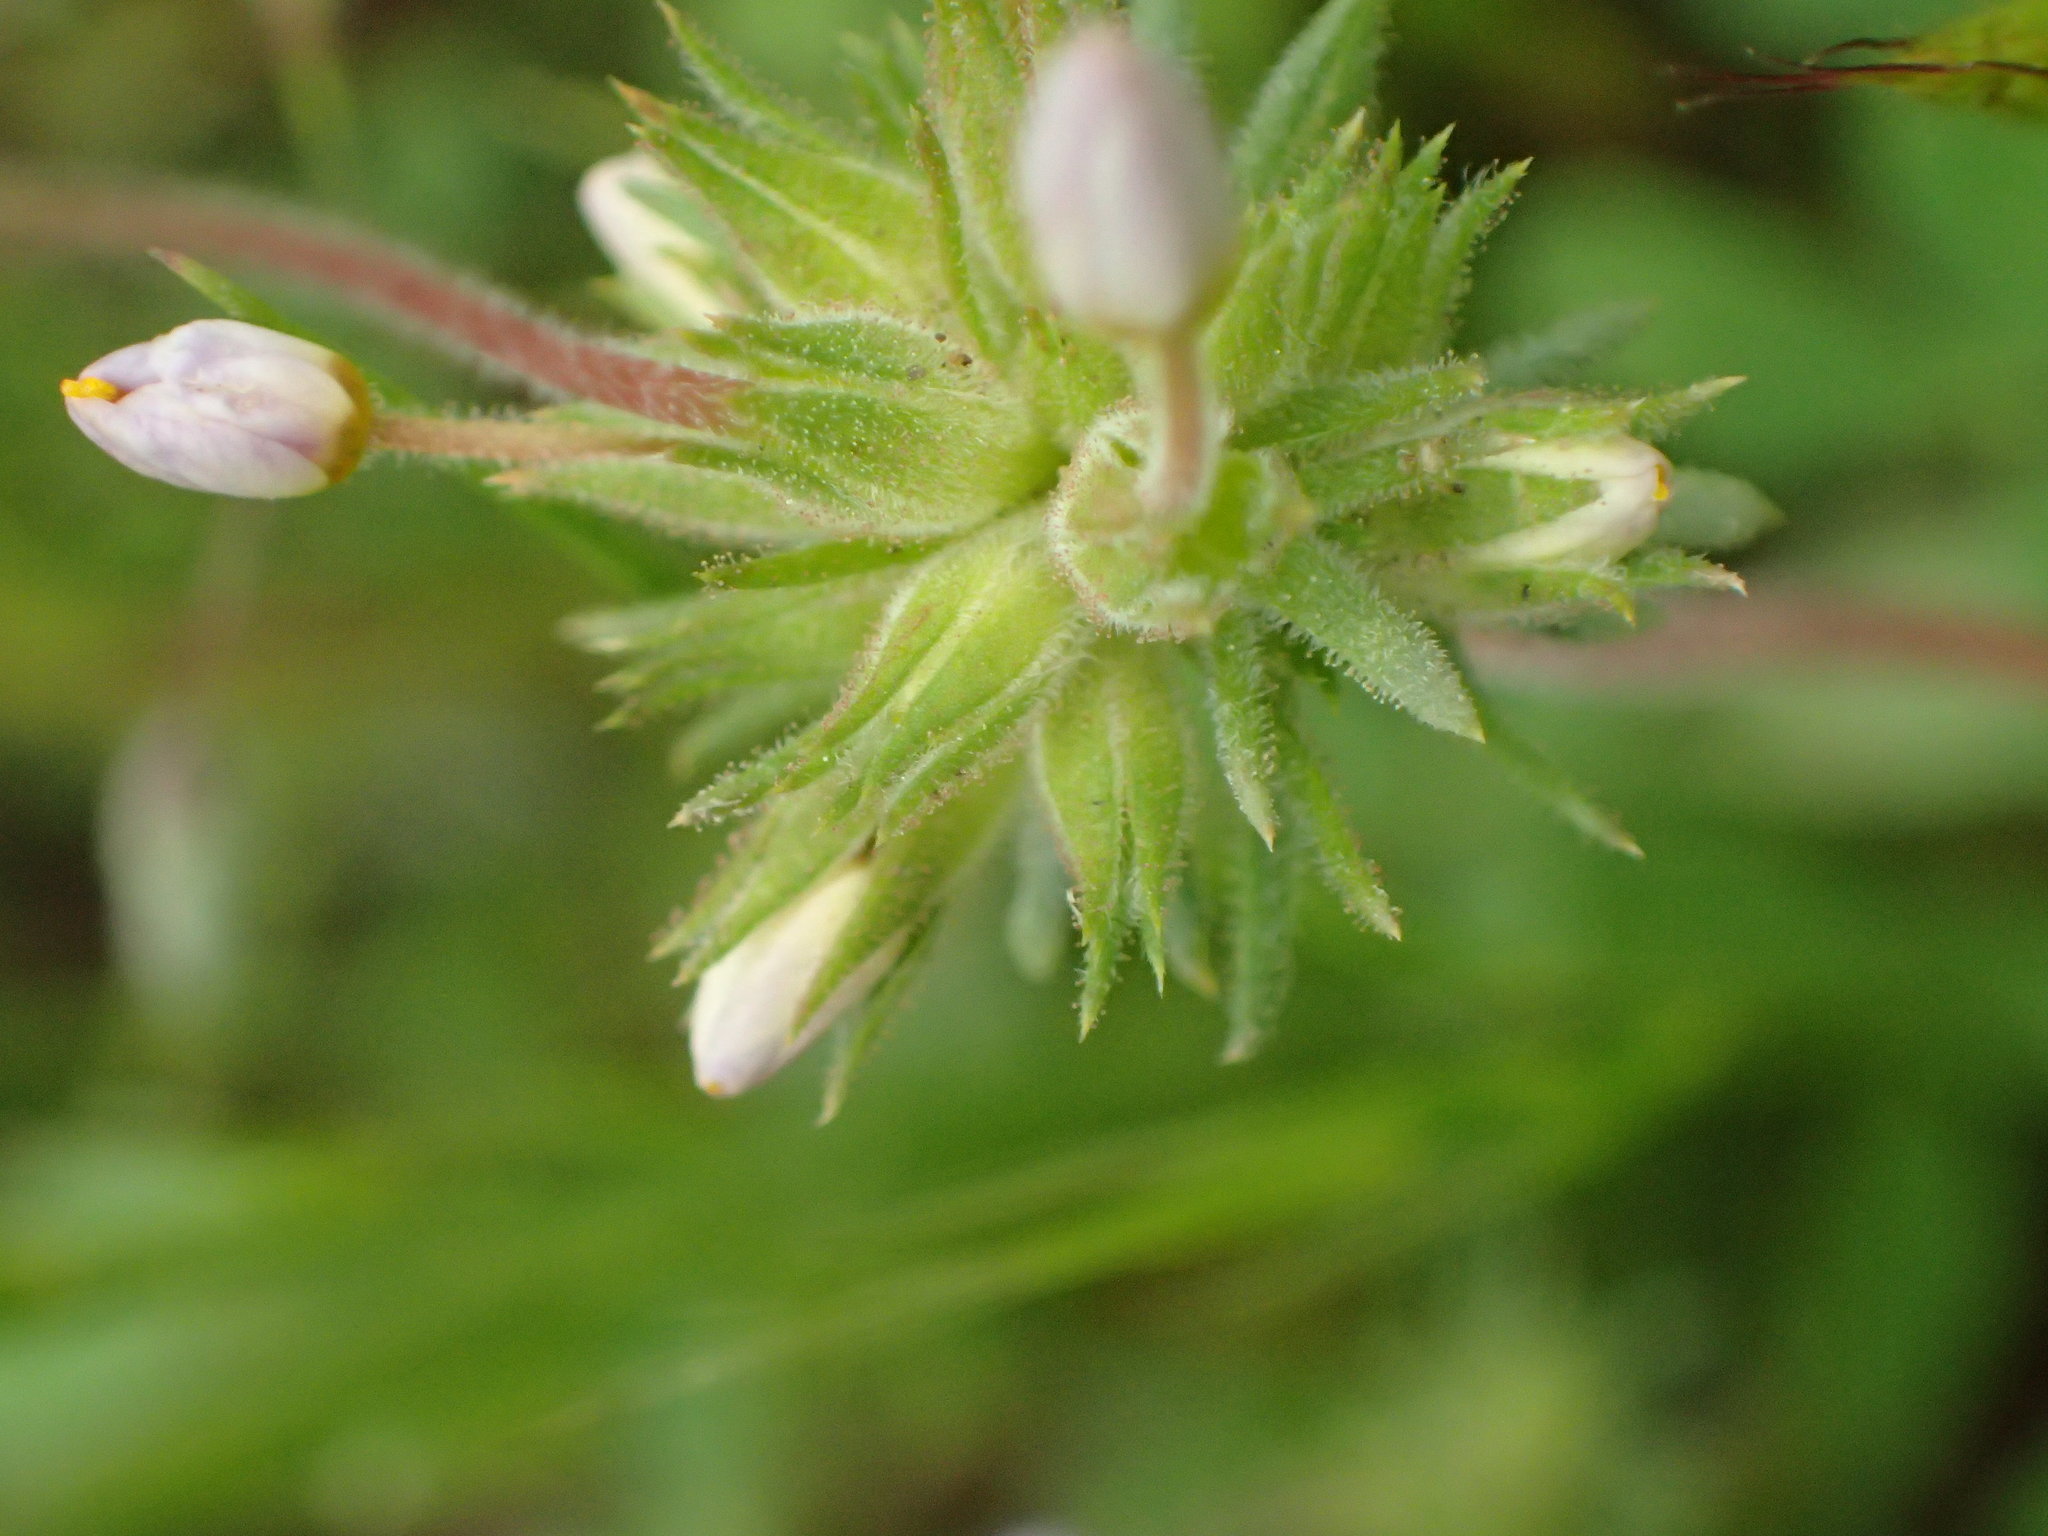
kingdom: Plantae
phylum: Tracheophyta
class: Magnoliopsida
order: Ericales
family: Polemoniaceae
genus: Leptosiphon
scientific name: Leptosiphon parviflorus
